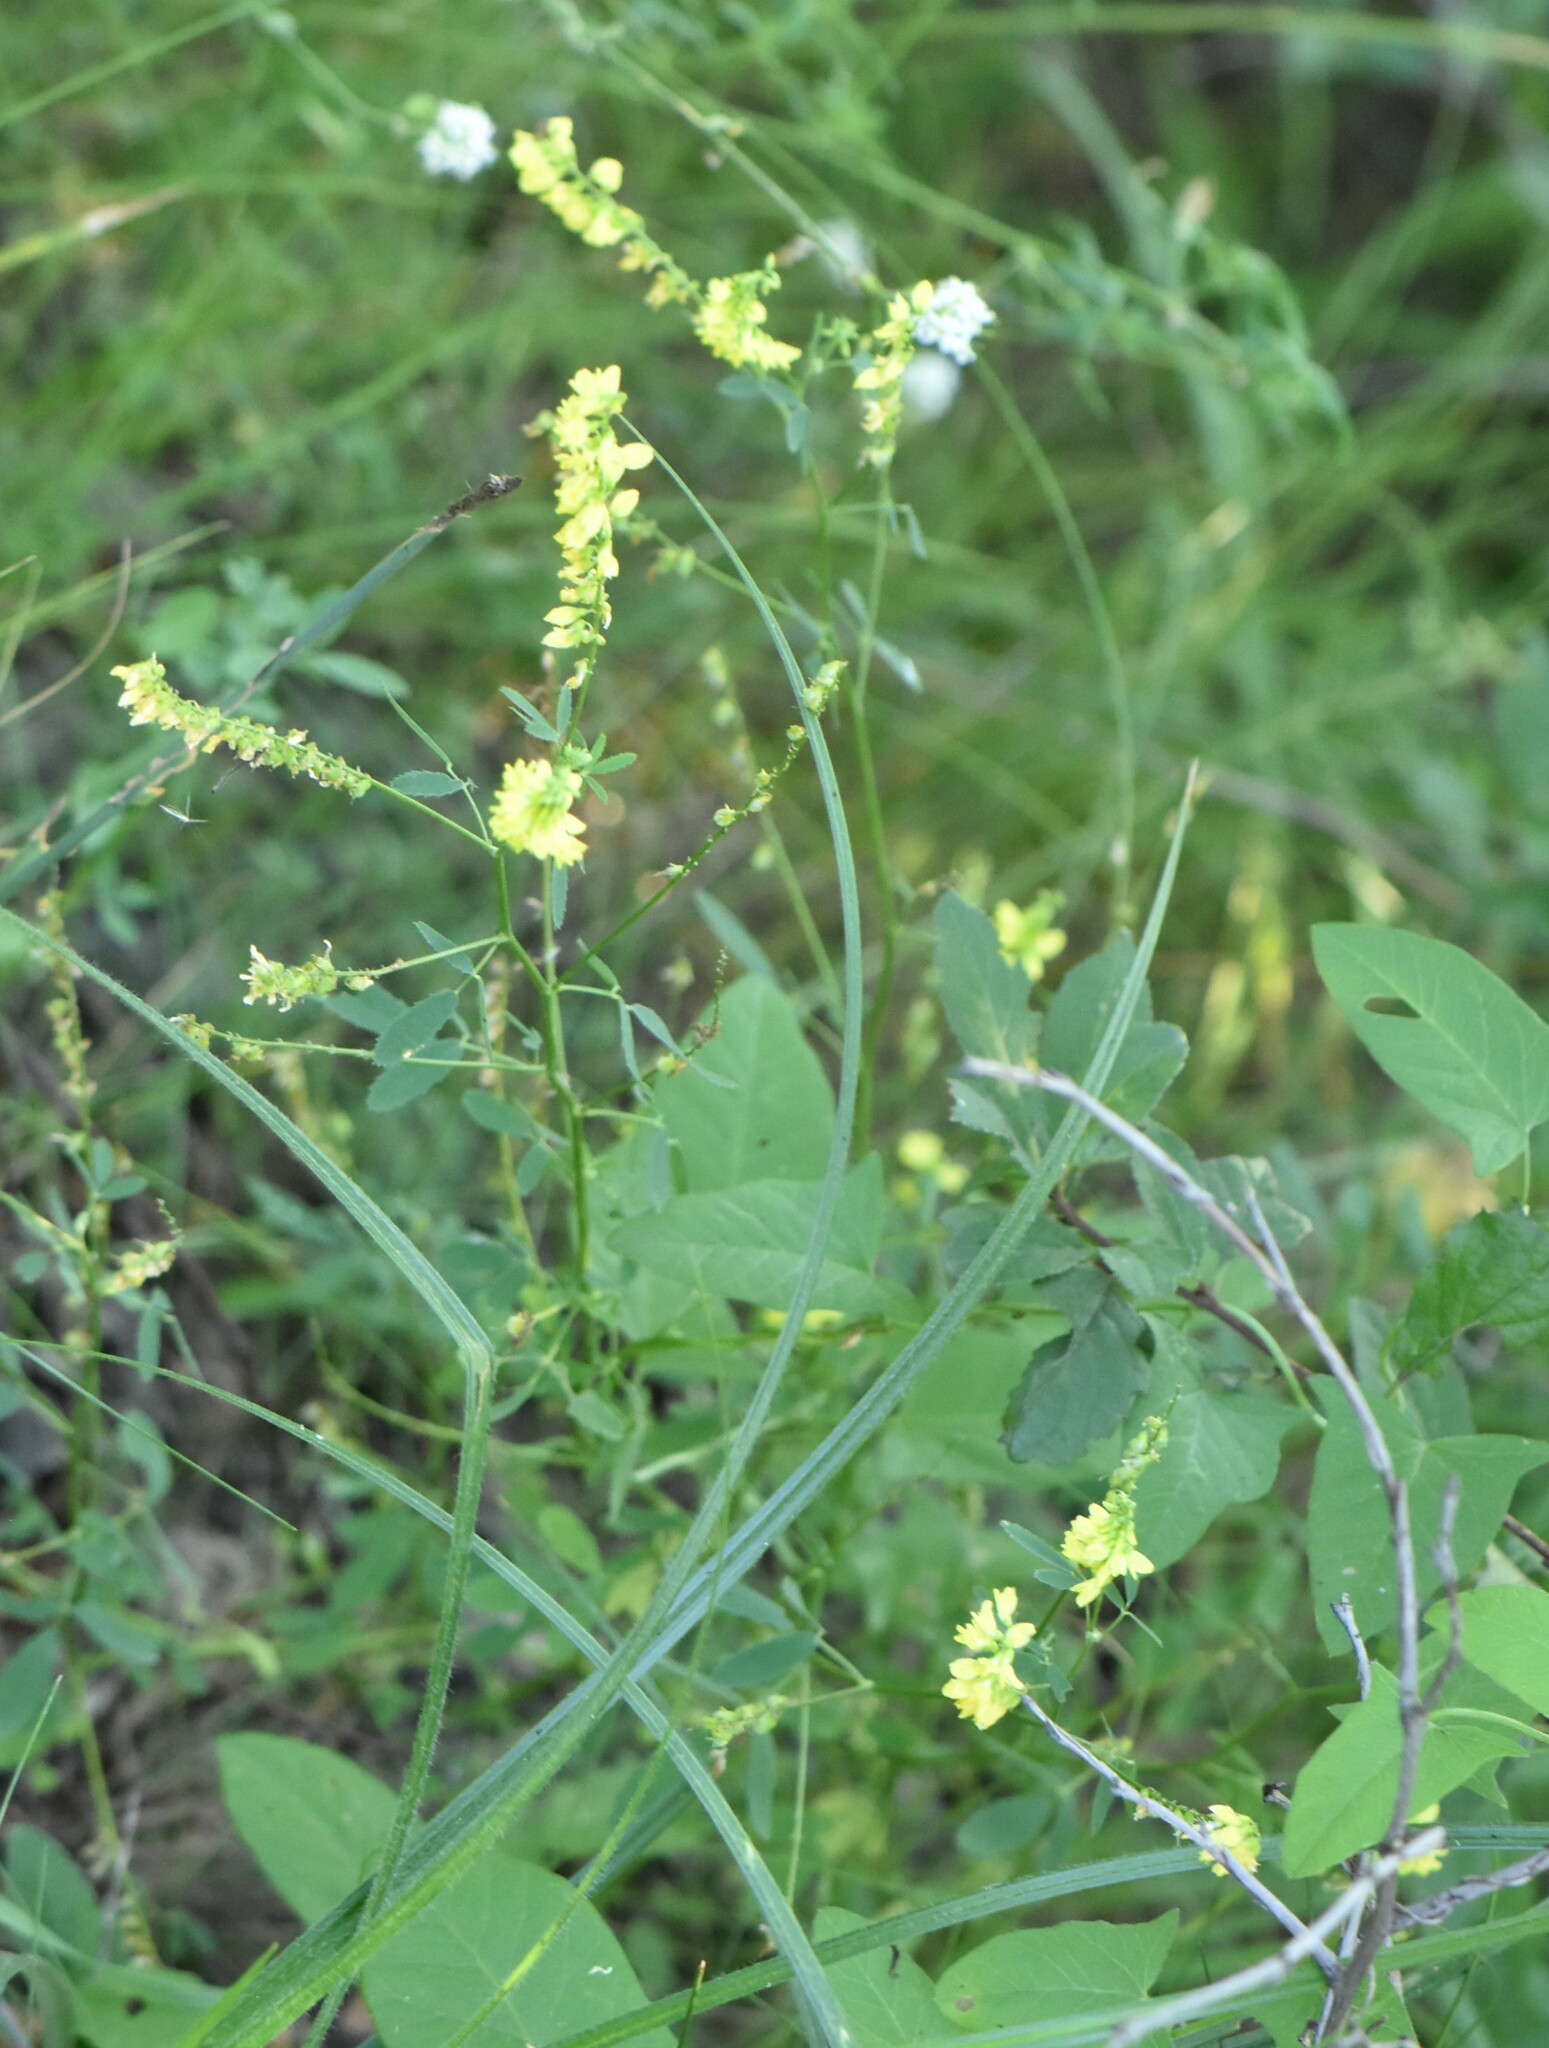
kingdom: Plantae
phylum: Tracheophyta
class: Magnoliopsida
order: Fabales
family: Fabaceae
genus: Melilotus
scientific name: Melilotus officinalis
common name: Sweetclover
